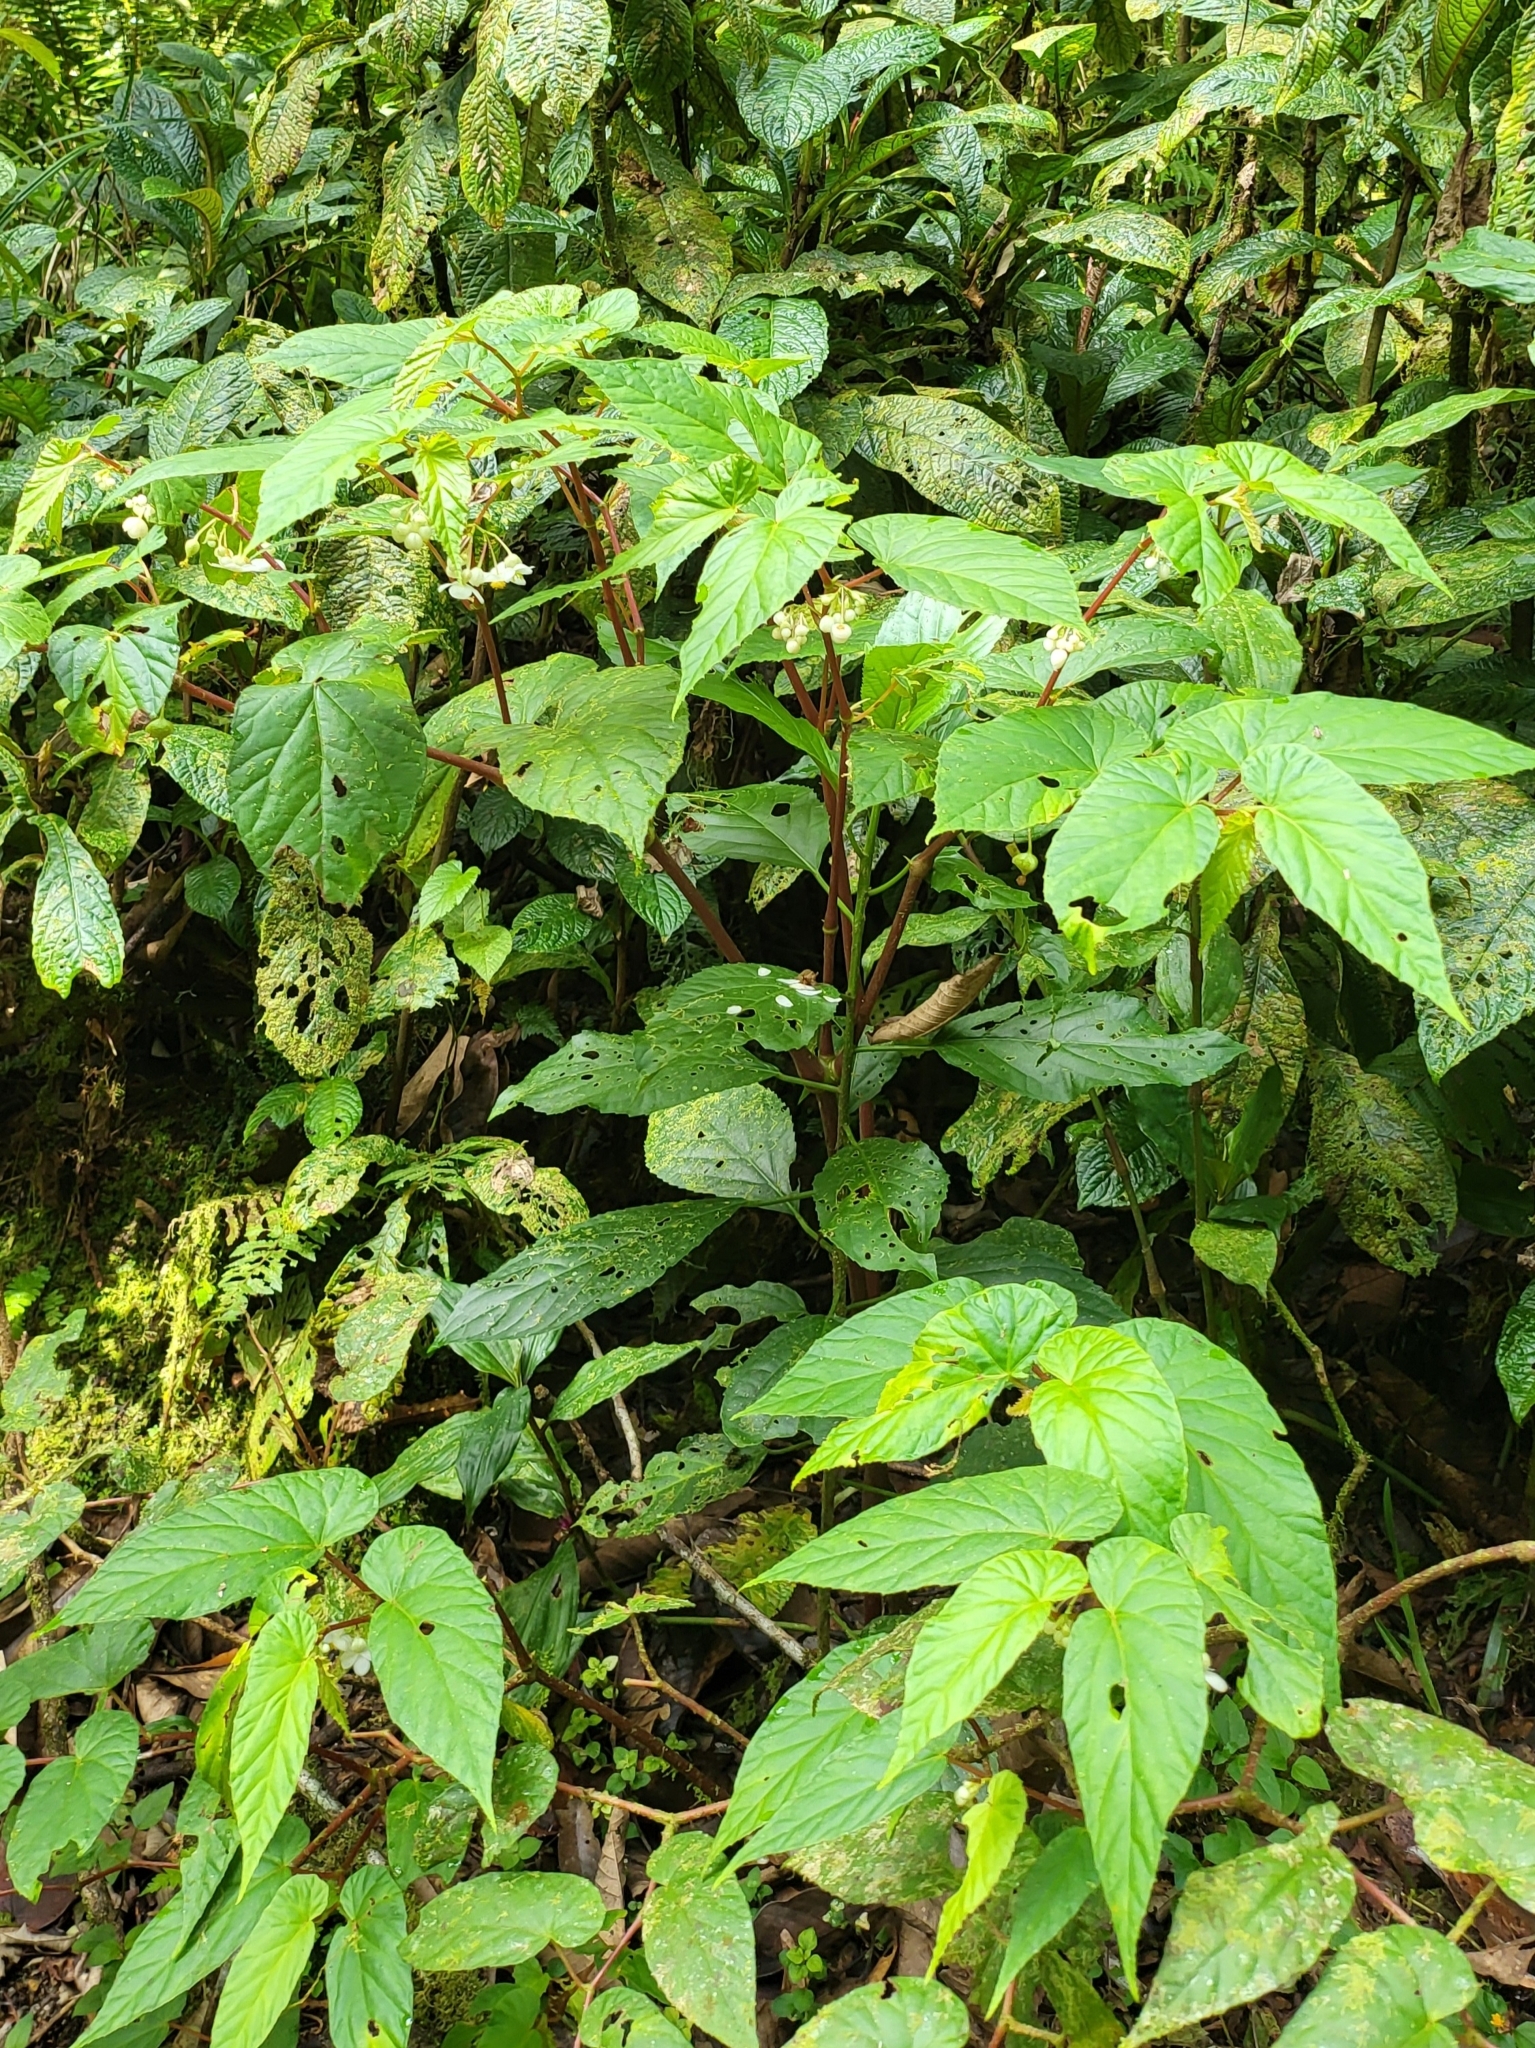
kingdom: Plantae
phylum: Tracheophyta
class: Magnoliopsida
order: Cucurbitales
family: Begoniaceae
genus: Begonia
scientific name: Begonia longifolia
